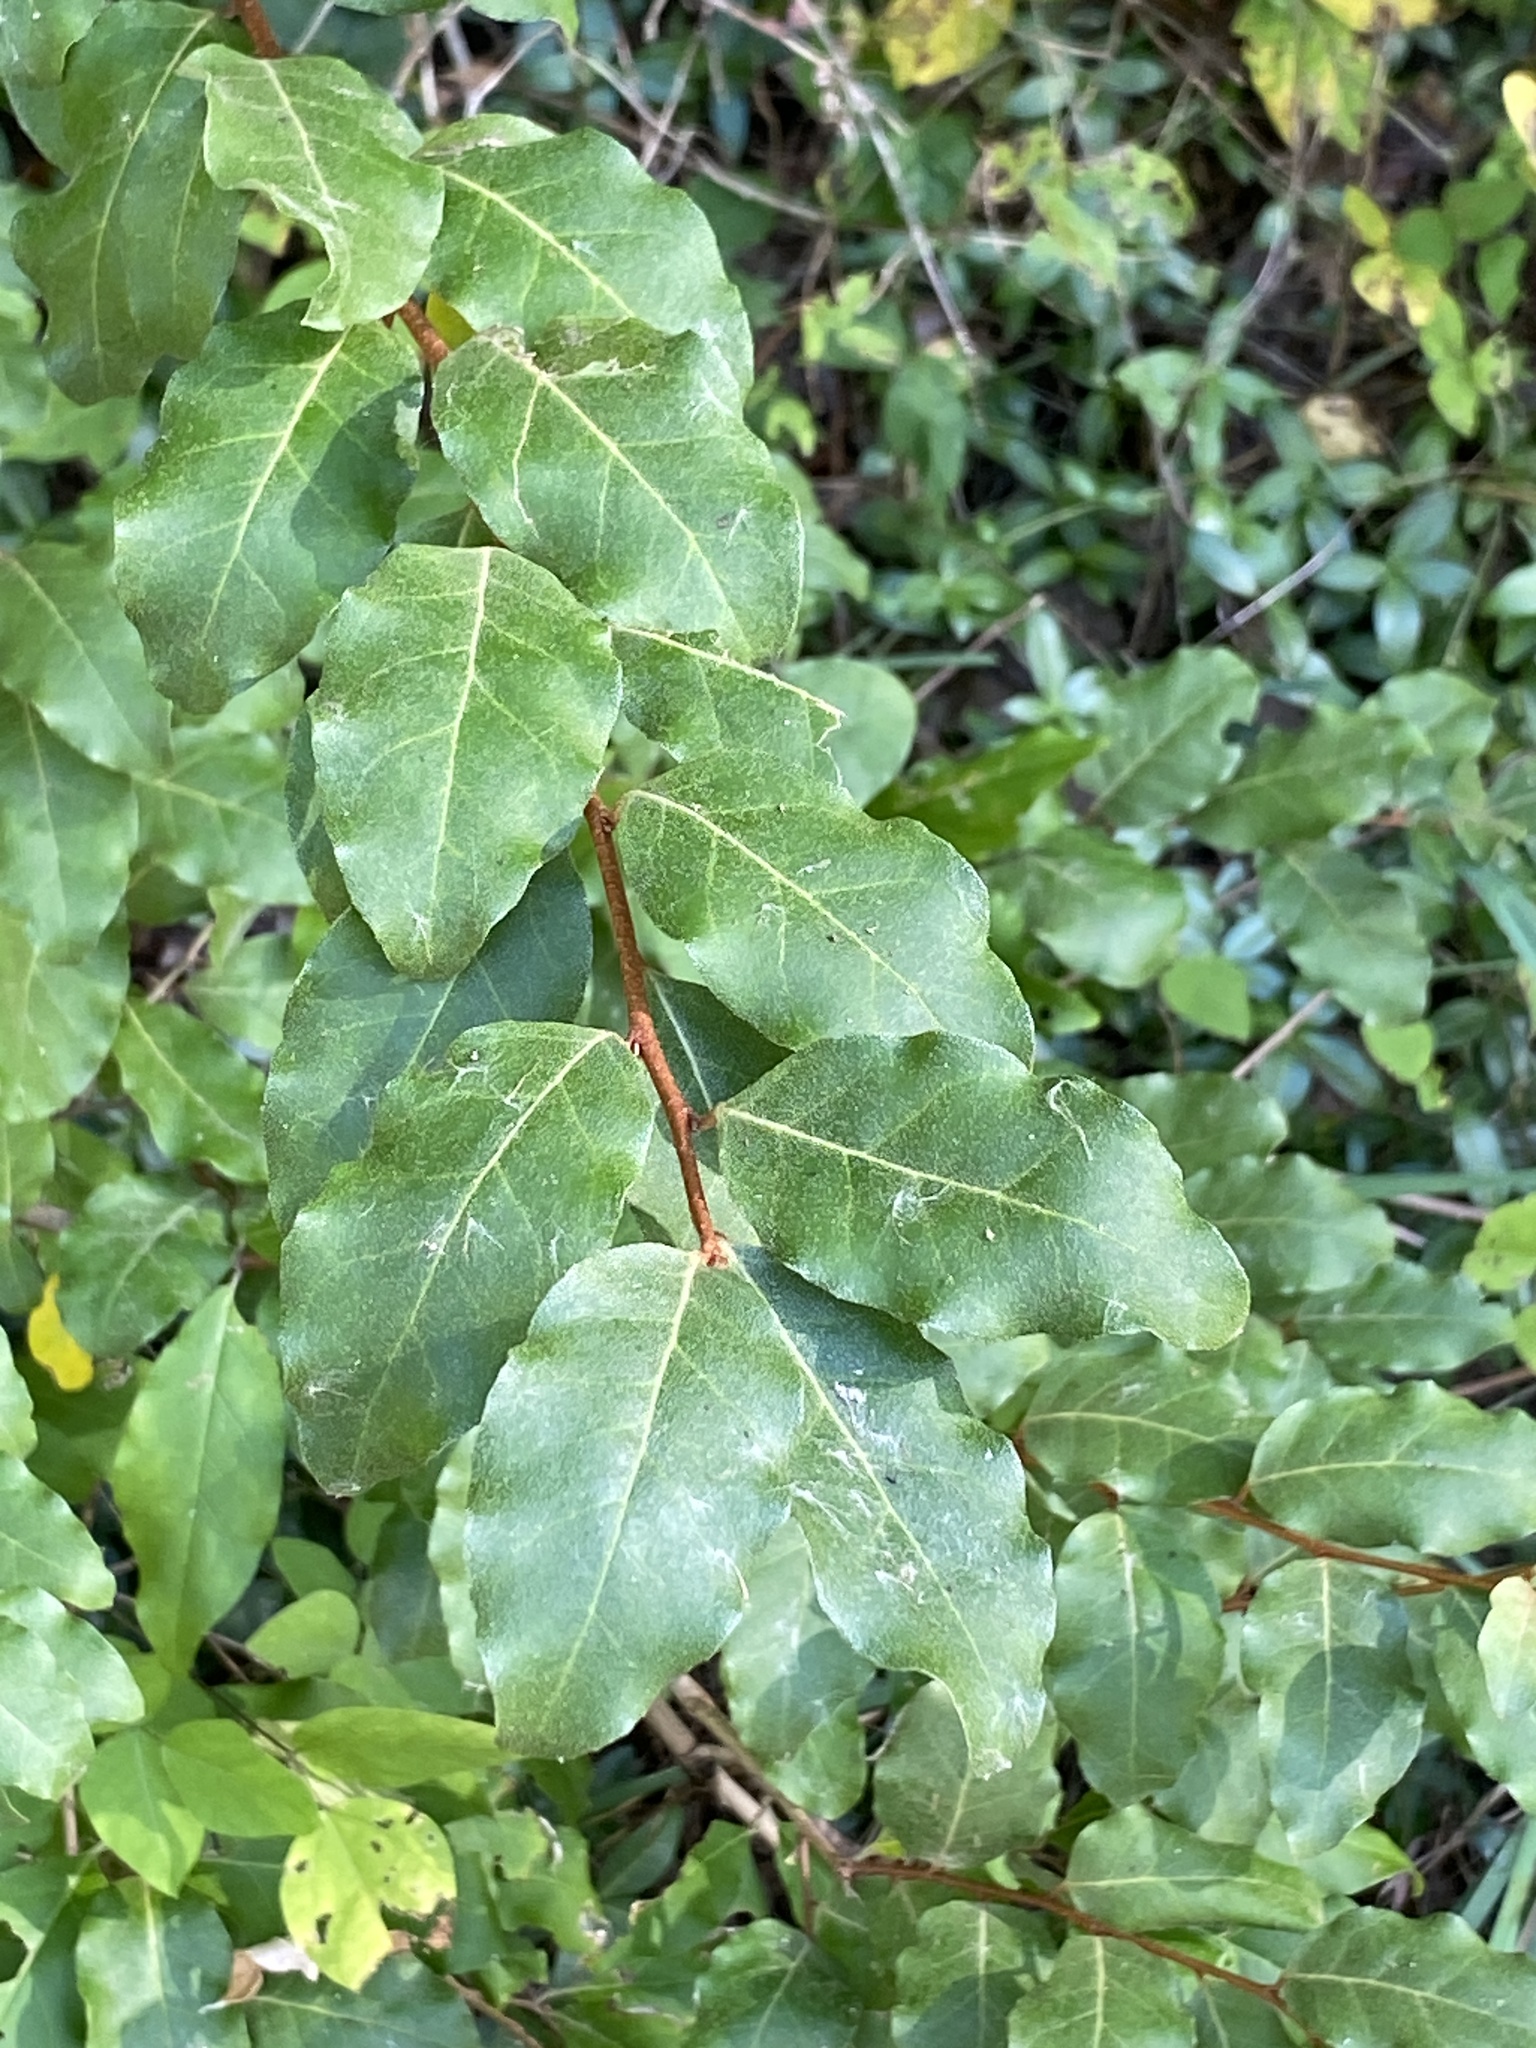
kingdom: Plantae
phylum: Tracheophyta
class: Magnoliopsida
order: Rosales
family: Elaeagnaceae
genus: Elaeagnus
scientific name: Elaeagnus umbellata
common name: Autumn olive
